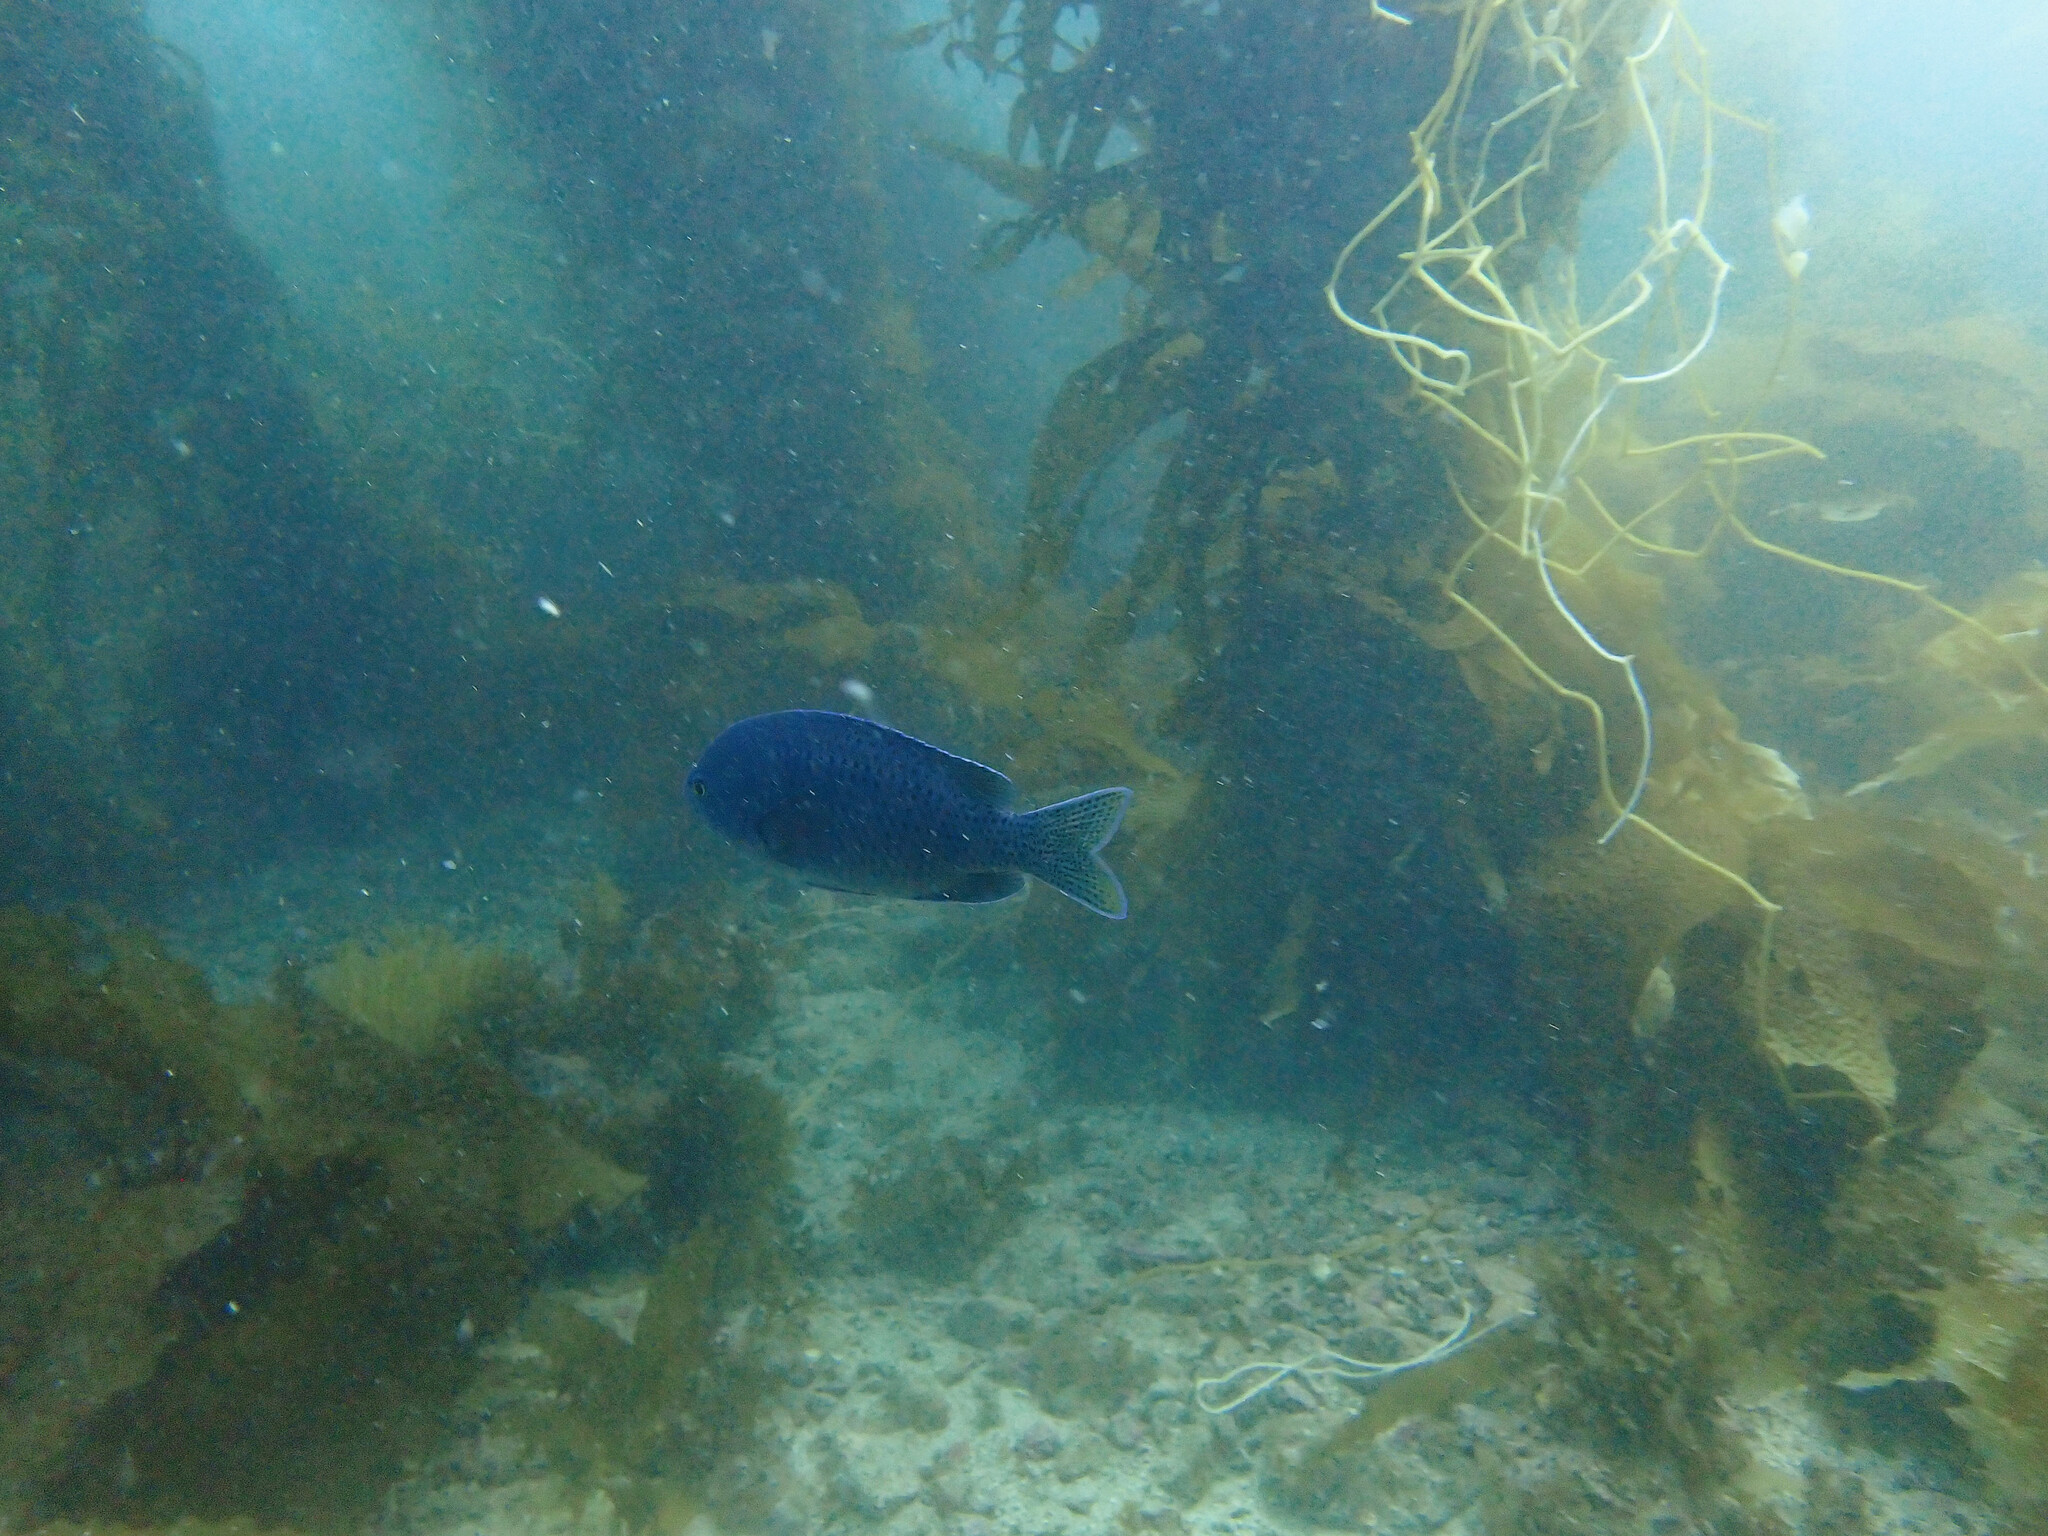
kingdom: Animalia
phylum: Chordata
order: Perciformes
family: Pomacentridae
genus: Chromis
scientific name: Chromis punctipinnis
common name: Blacksmith
